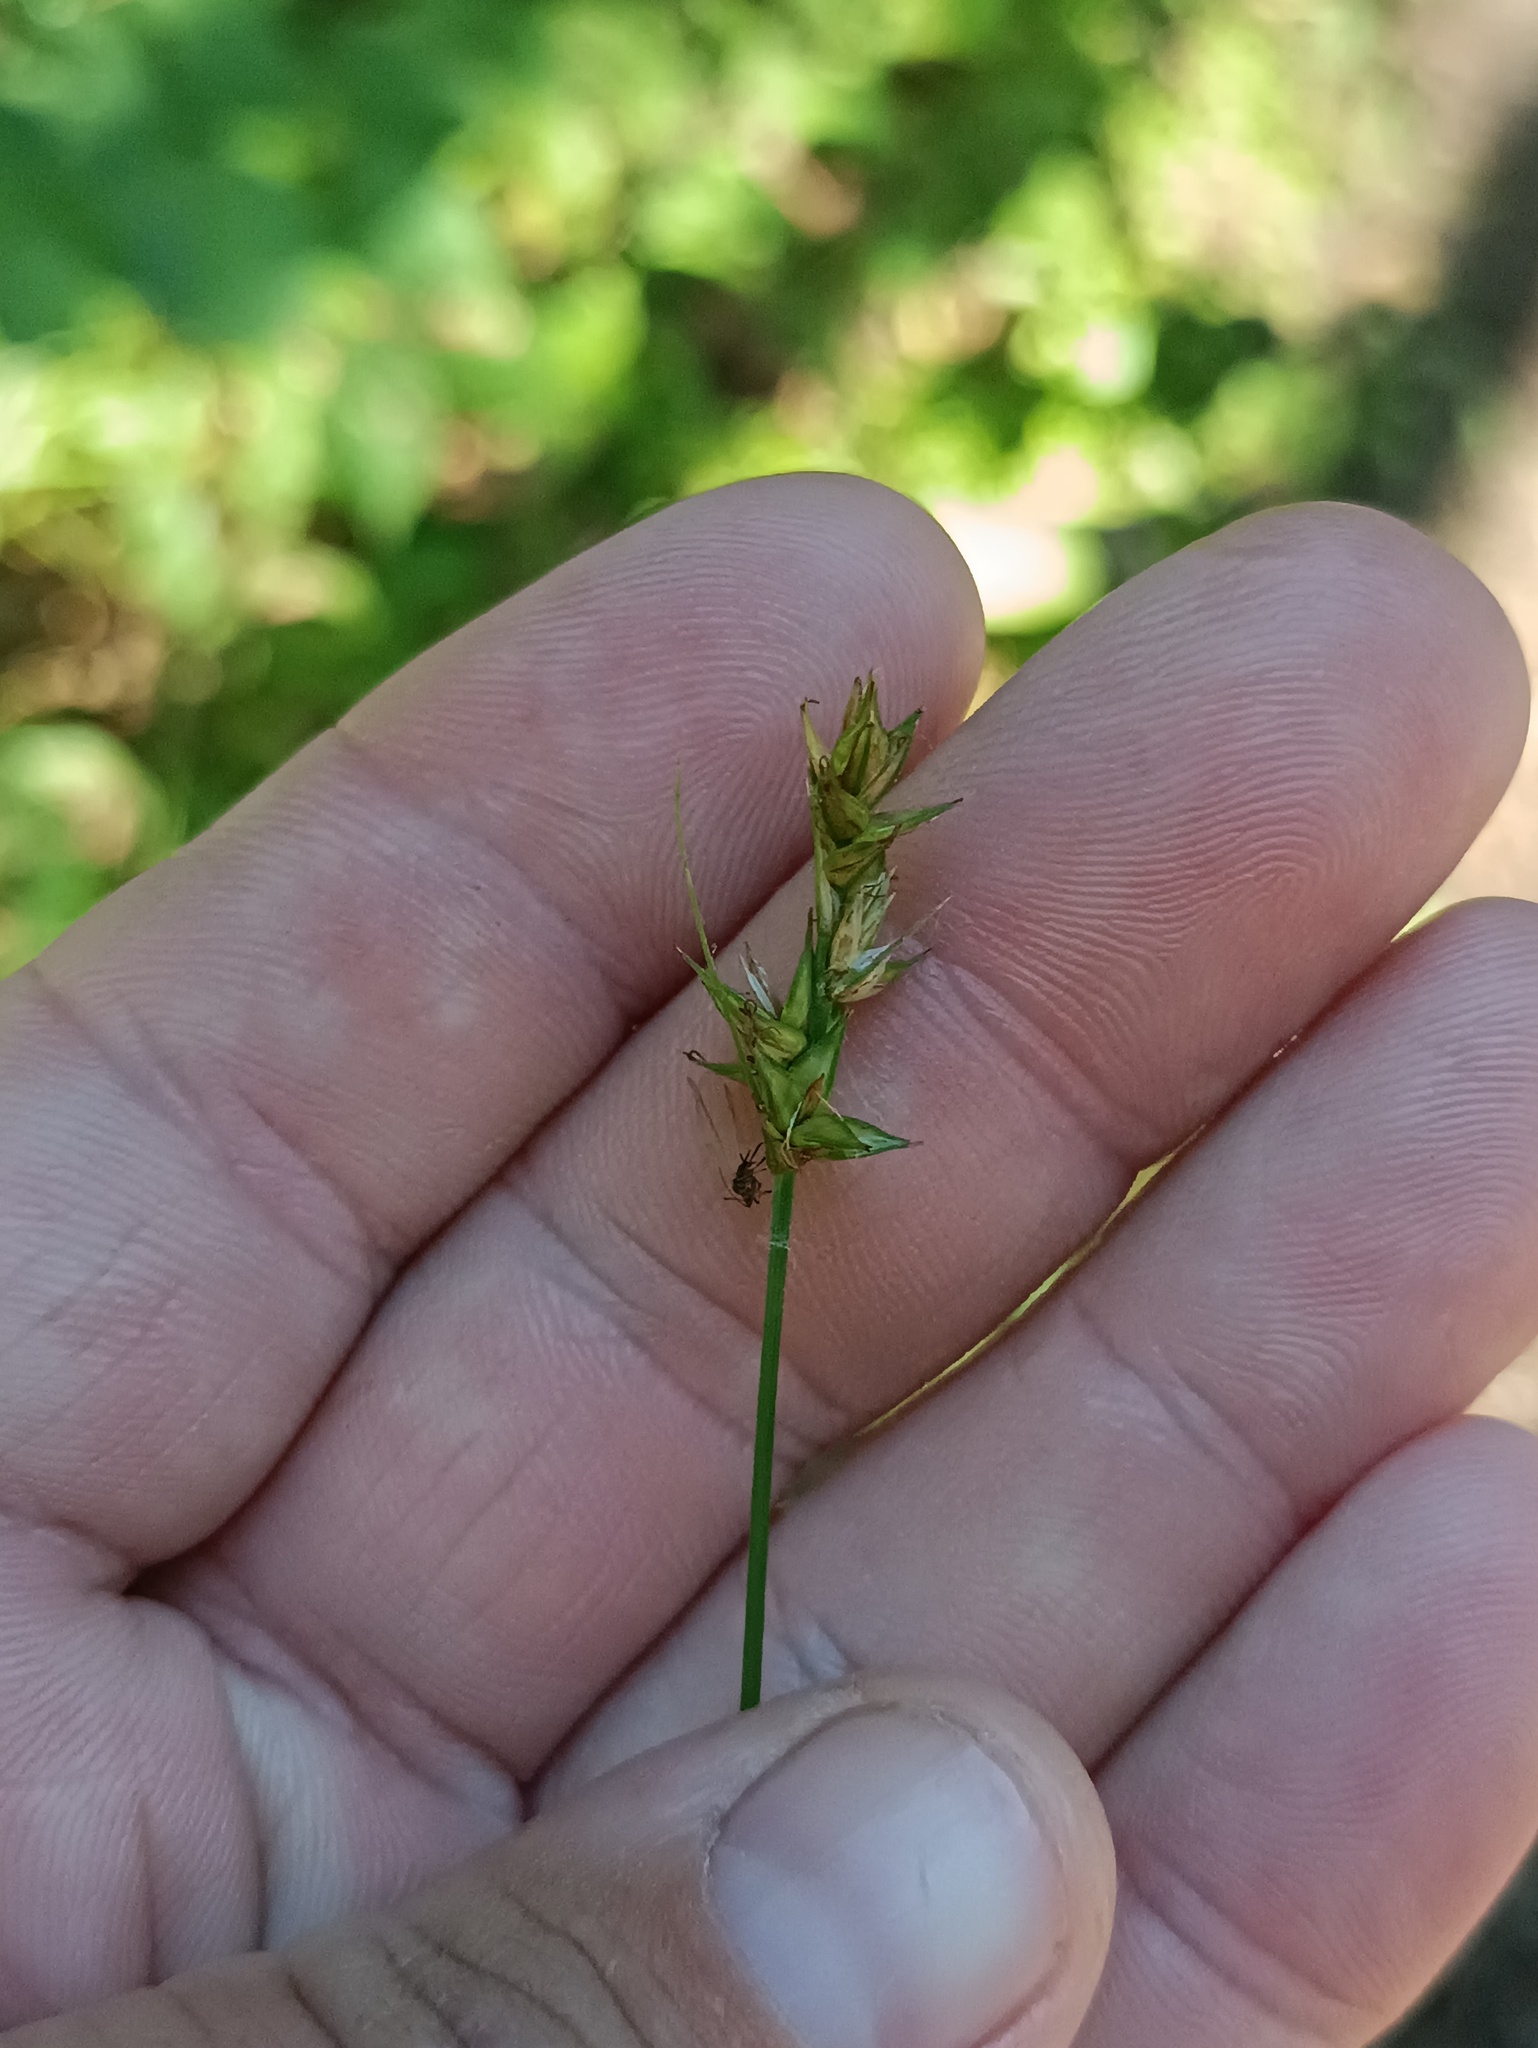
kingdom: Plantae
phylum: Tracheophyta
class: Liliopsida
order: Poales
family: Cyperaceae
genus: Carex
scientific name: Carex spicata
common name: Spiked sedge
